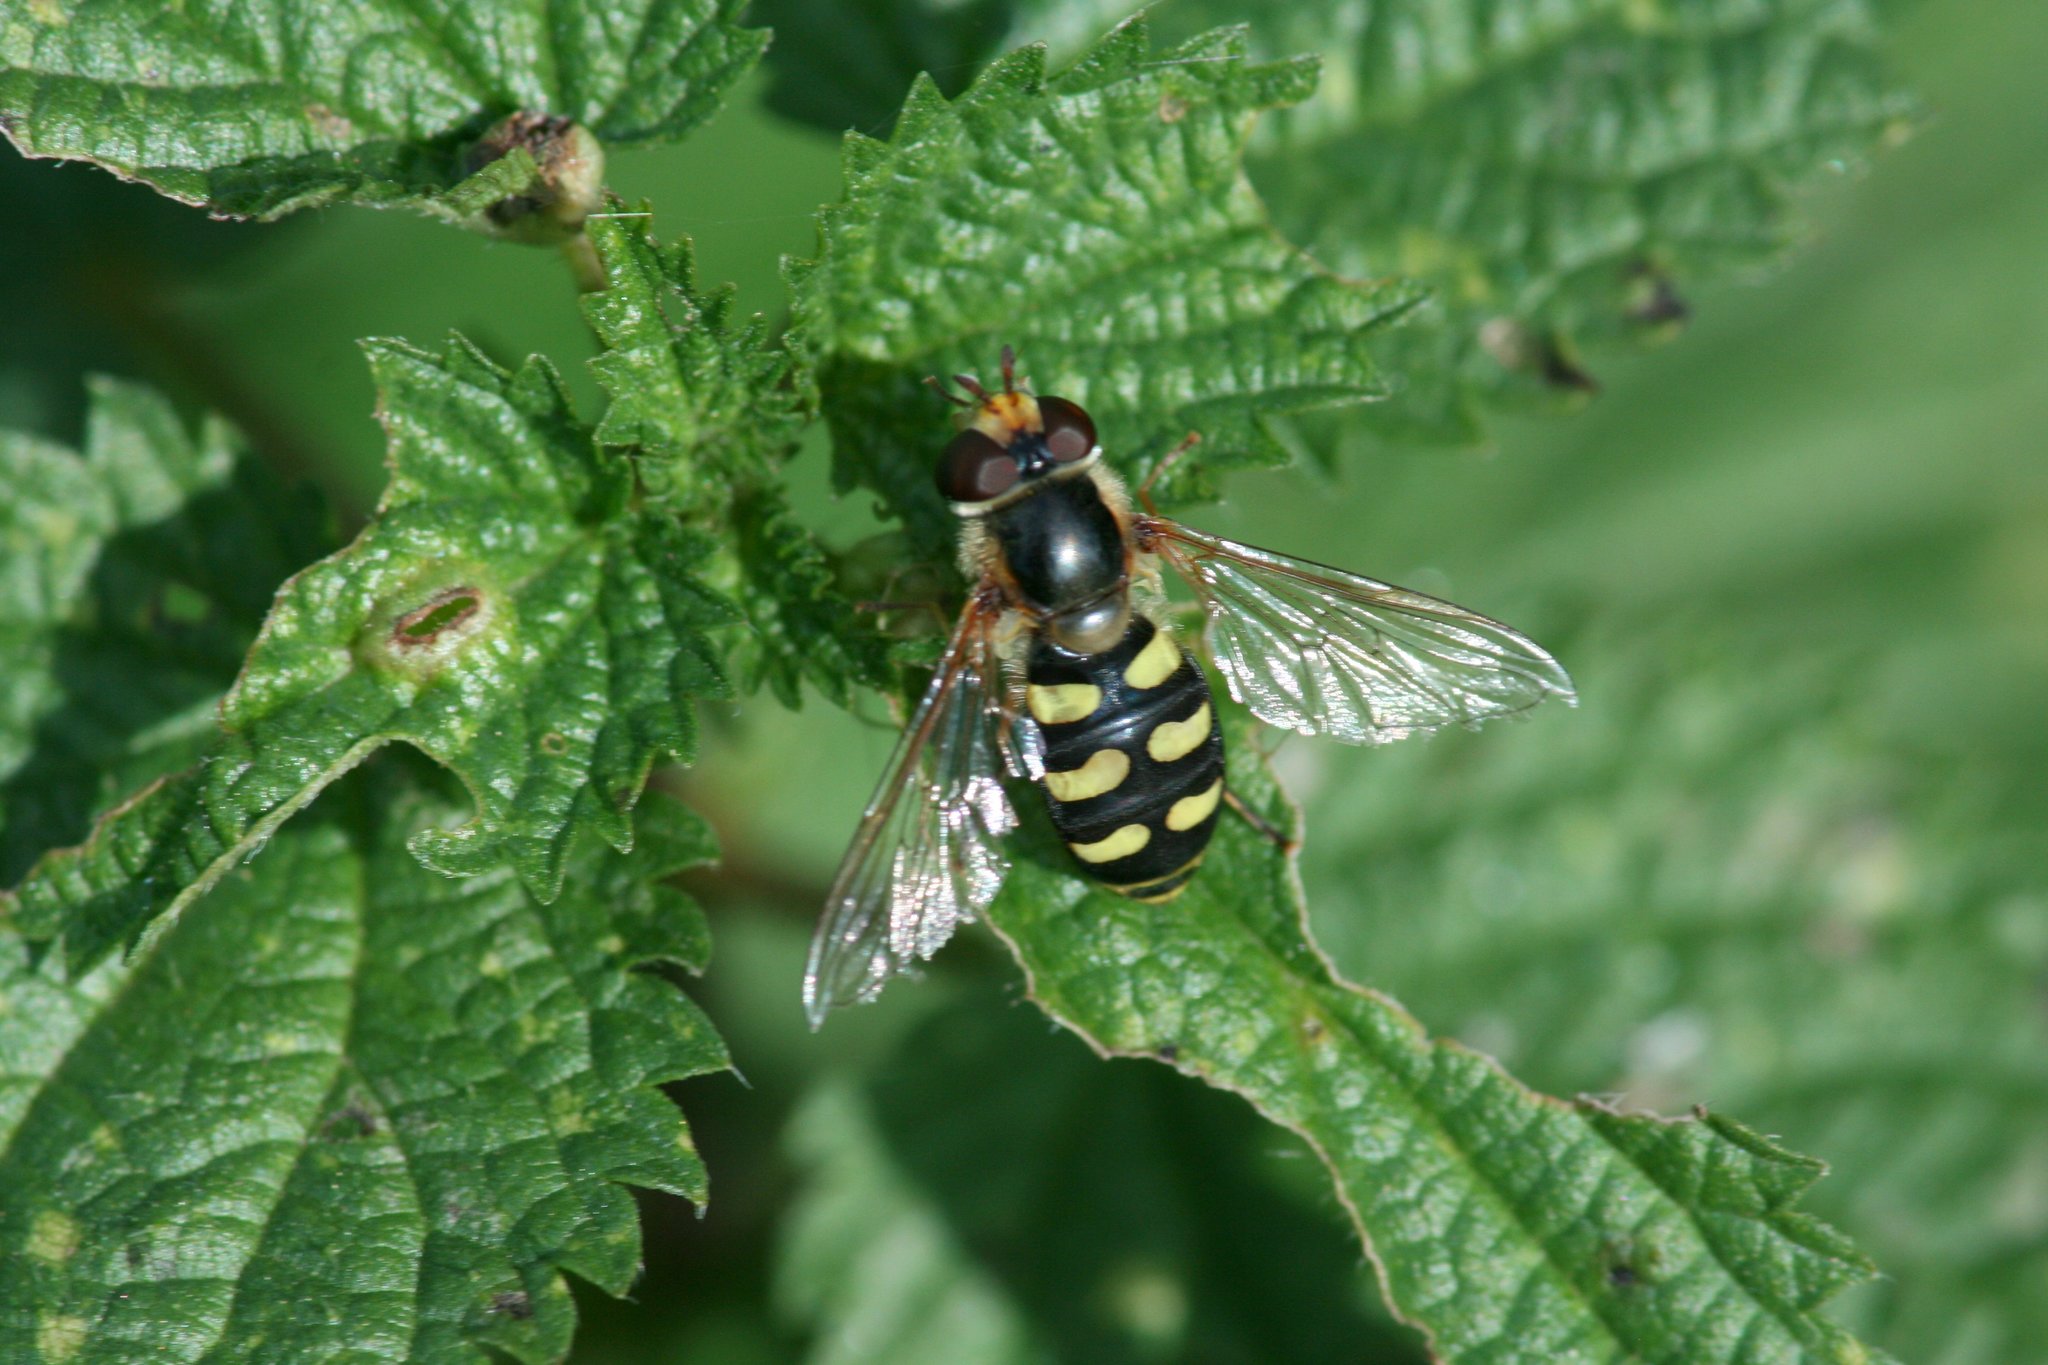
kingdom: Animalia
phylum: Arthropoda
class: Insecta
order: Diptera
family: Syrphidae
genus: Eupeodes
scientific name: Eupeodes luniger
